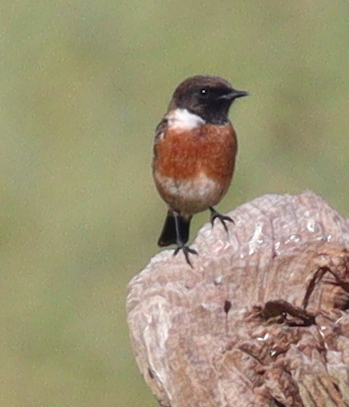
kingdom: Animalia
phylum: Chordata
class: Aves
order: Passeriformes
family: Muscicapidae
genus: Saxicola
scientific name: Saxicola rubicola
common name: European stonechat
